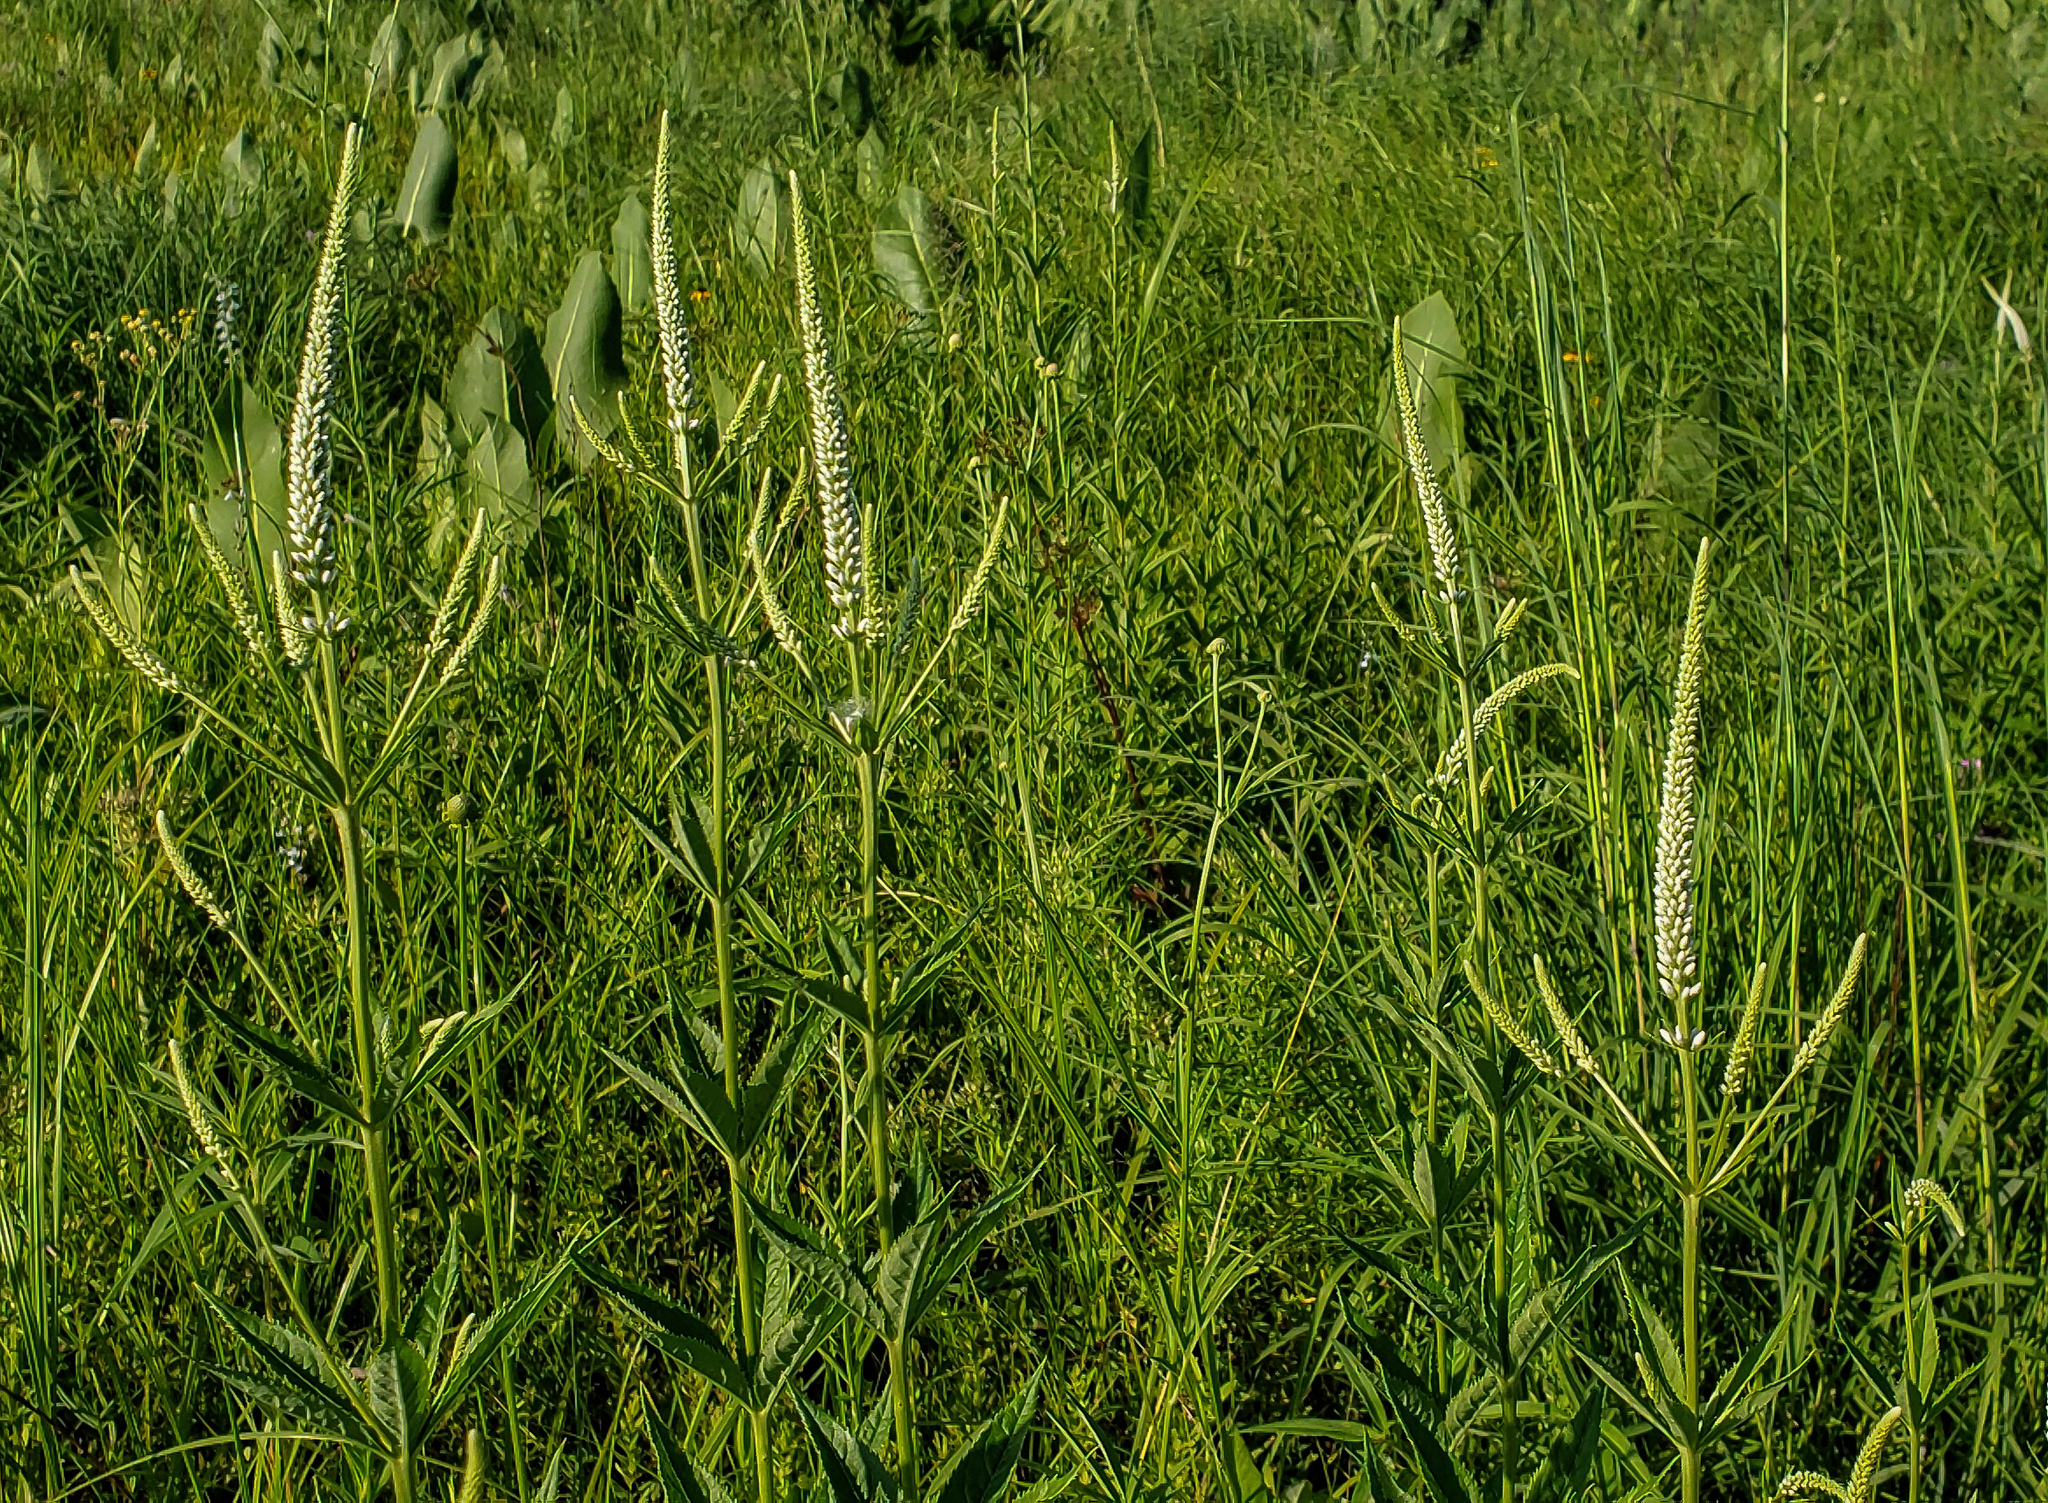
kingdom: Plantae
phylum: Tracheophyta
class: Magnoliopsida
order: Lamiales
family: Plantaginaceae
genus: Veronicastrum
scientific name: Veronicastrum virginicum
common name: Blackroot
